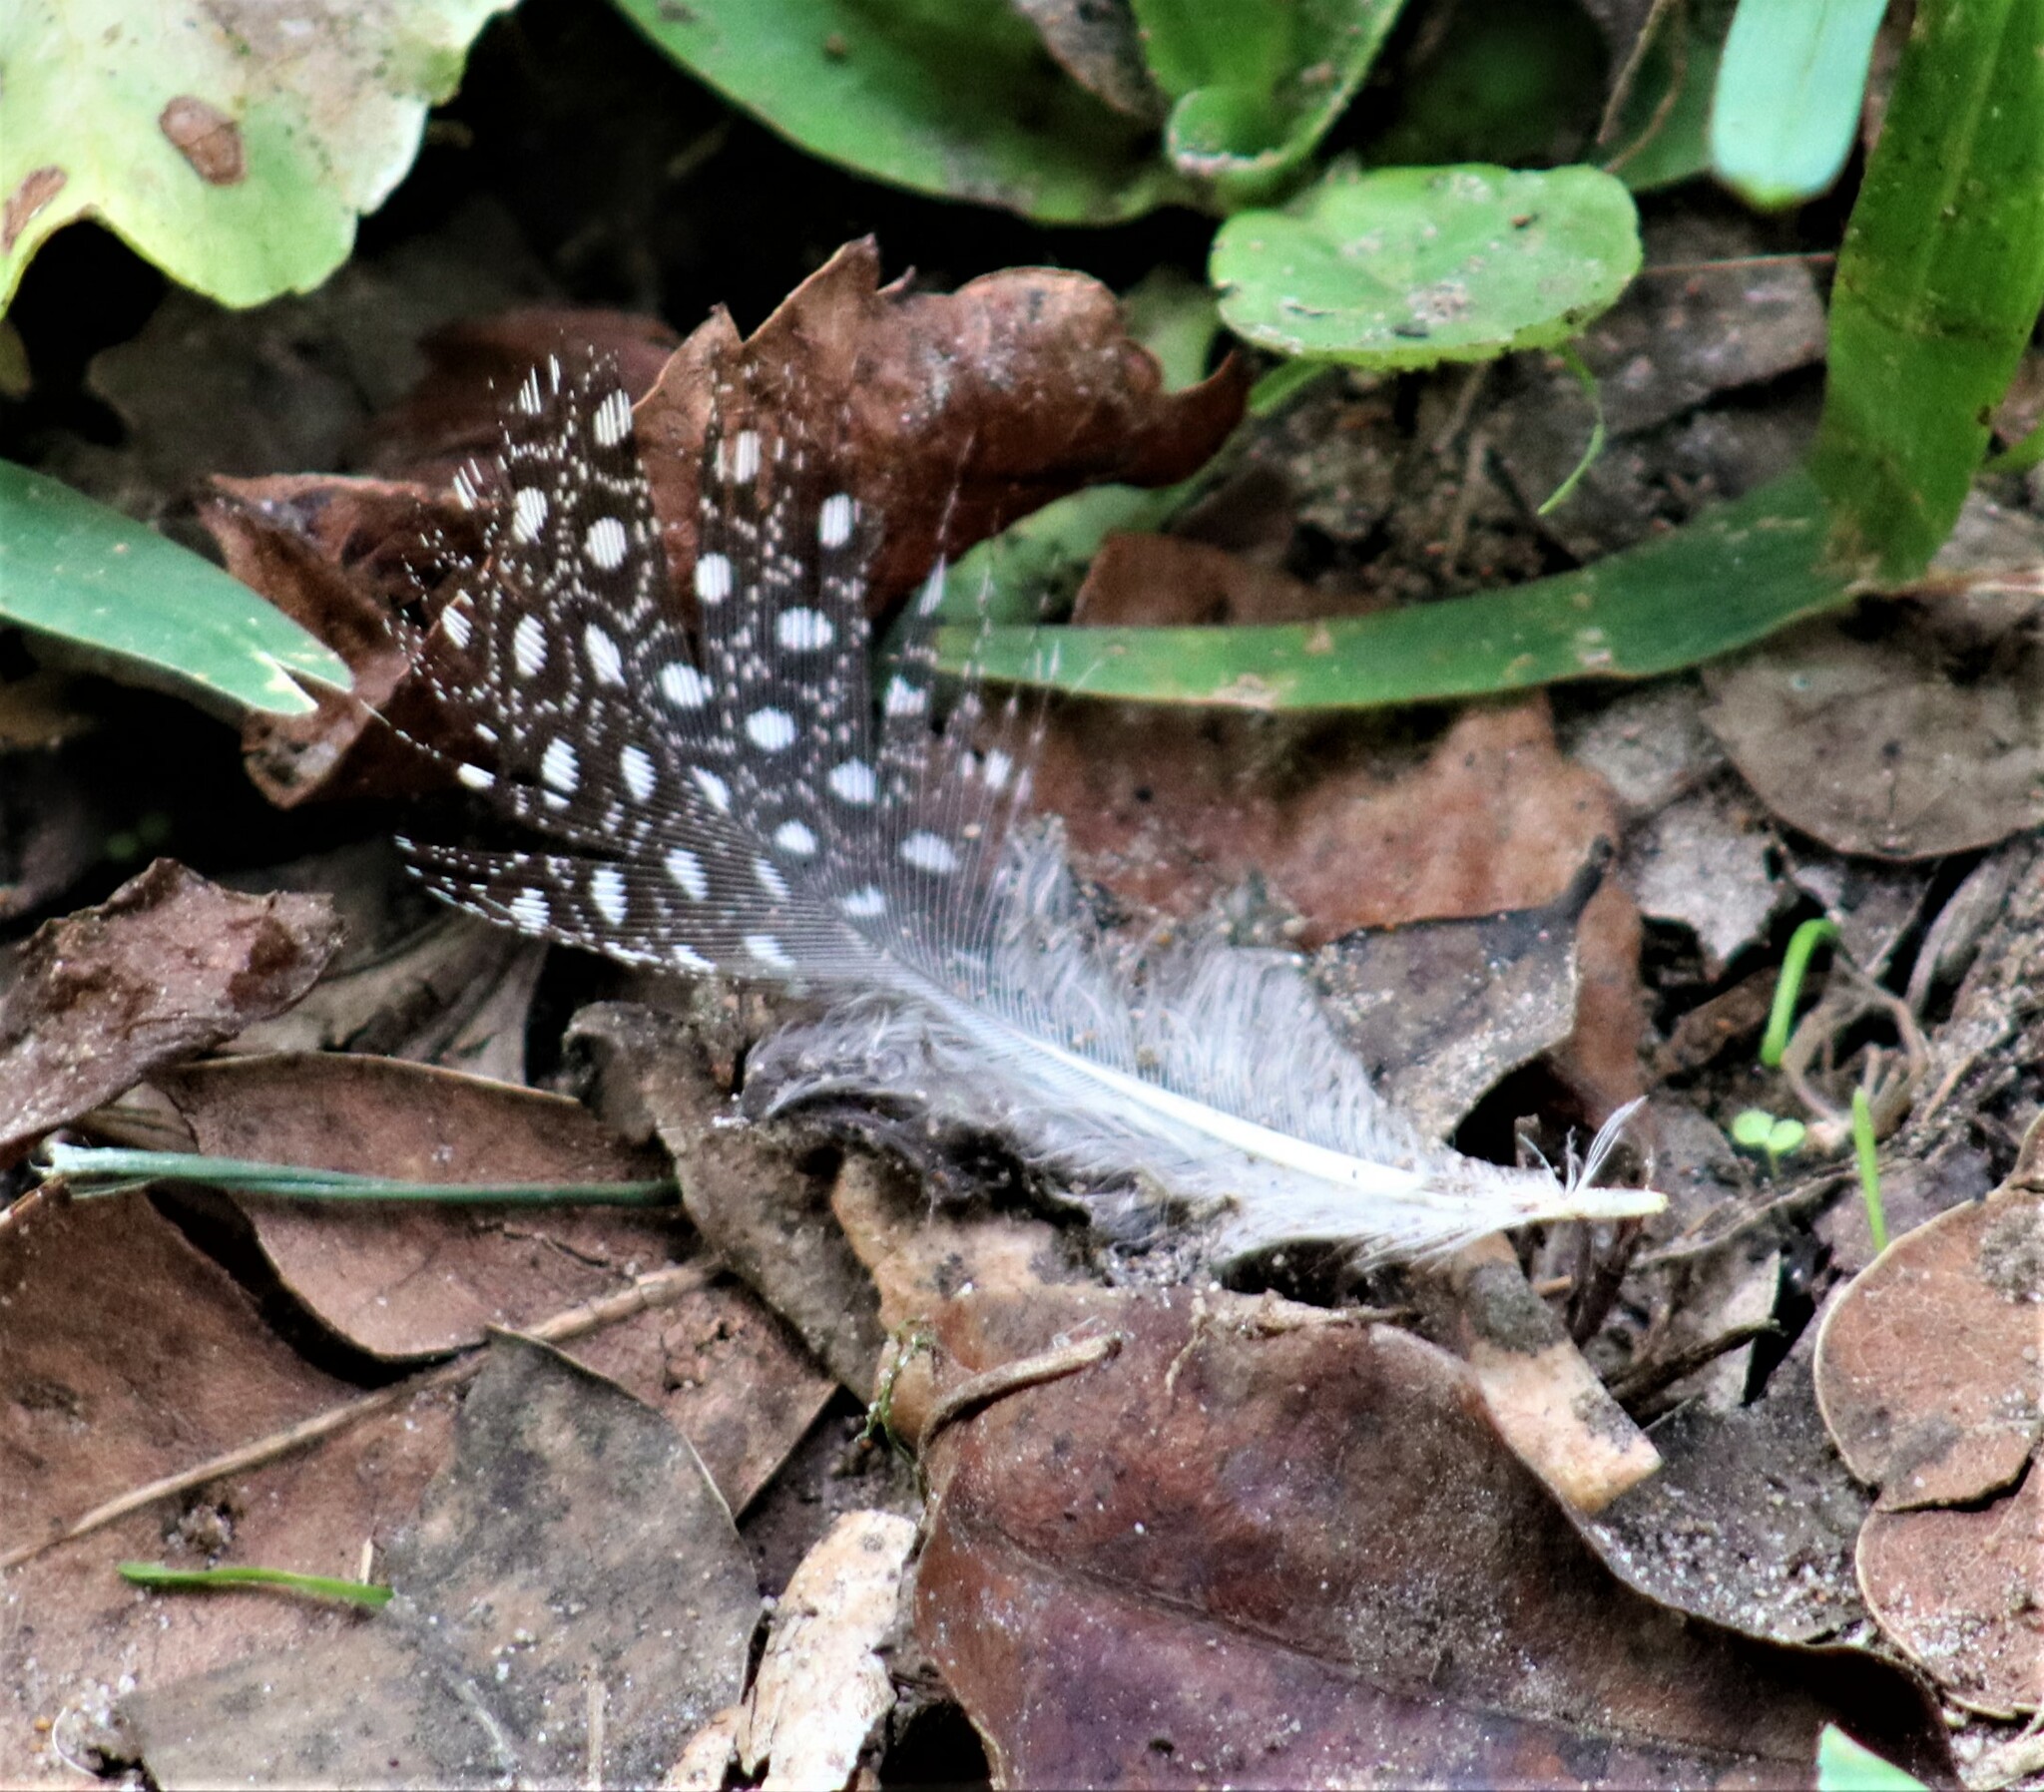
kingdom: Animalia
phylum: Chordata
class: Aves
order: Galliformes
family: Numididae
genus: Numida
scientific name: Numida meleagris
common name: Helmeted guineafowl
